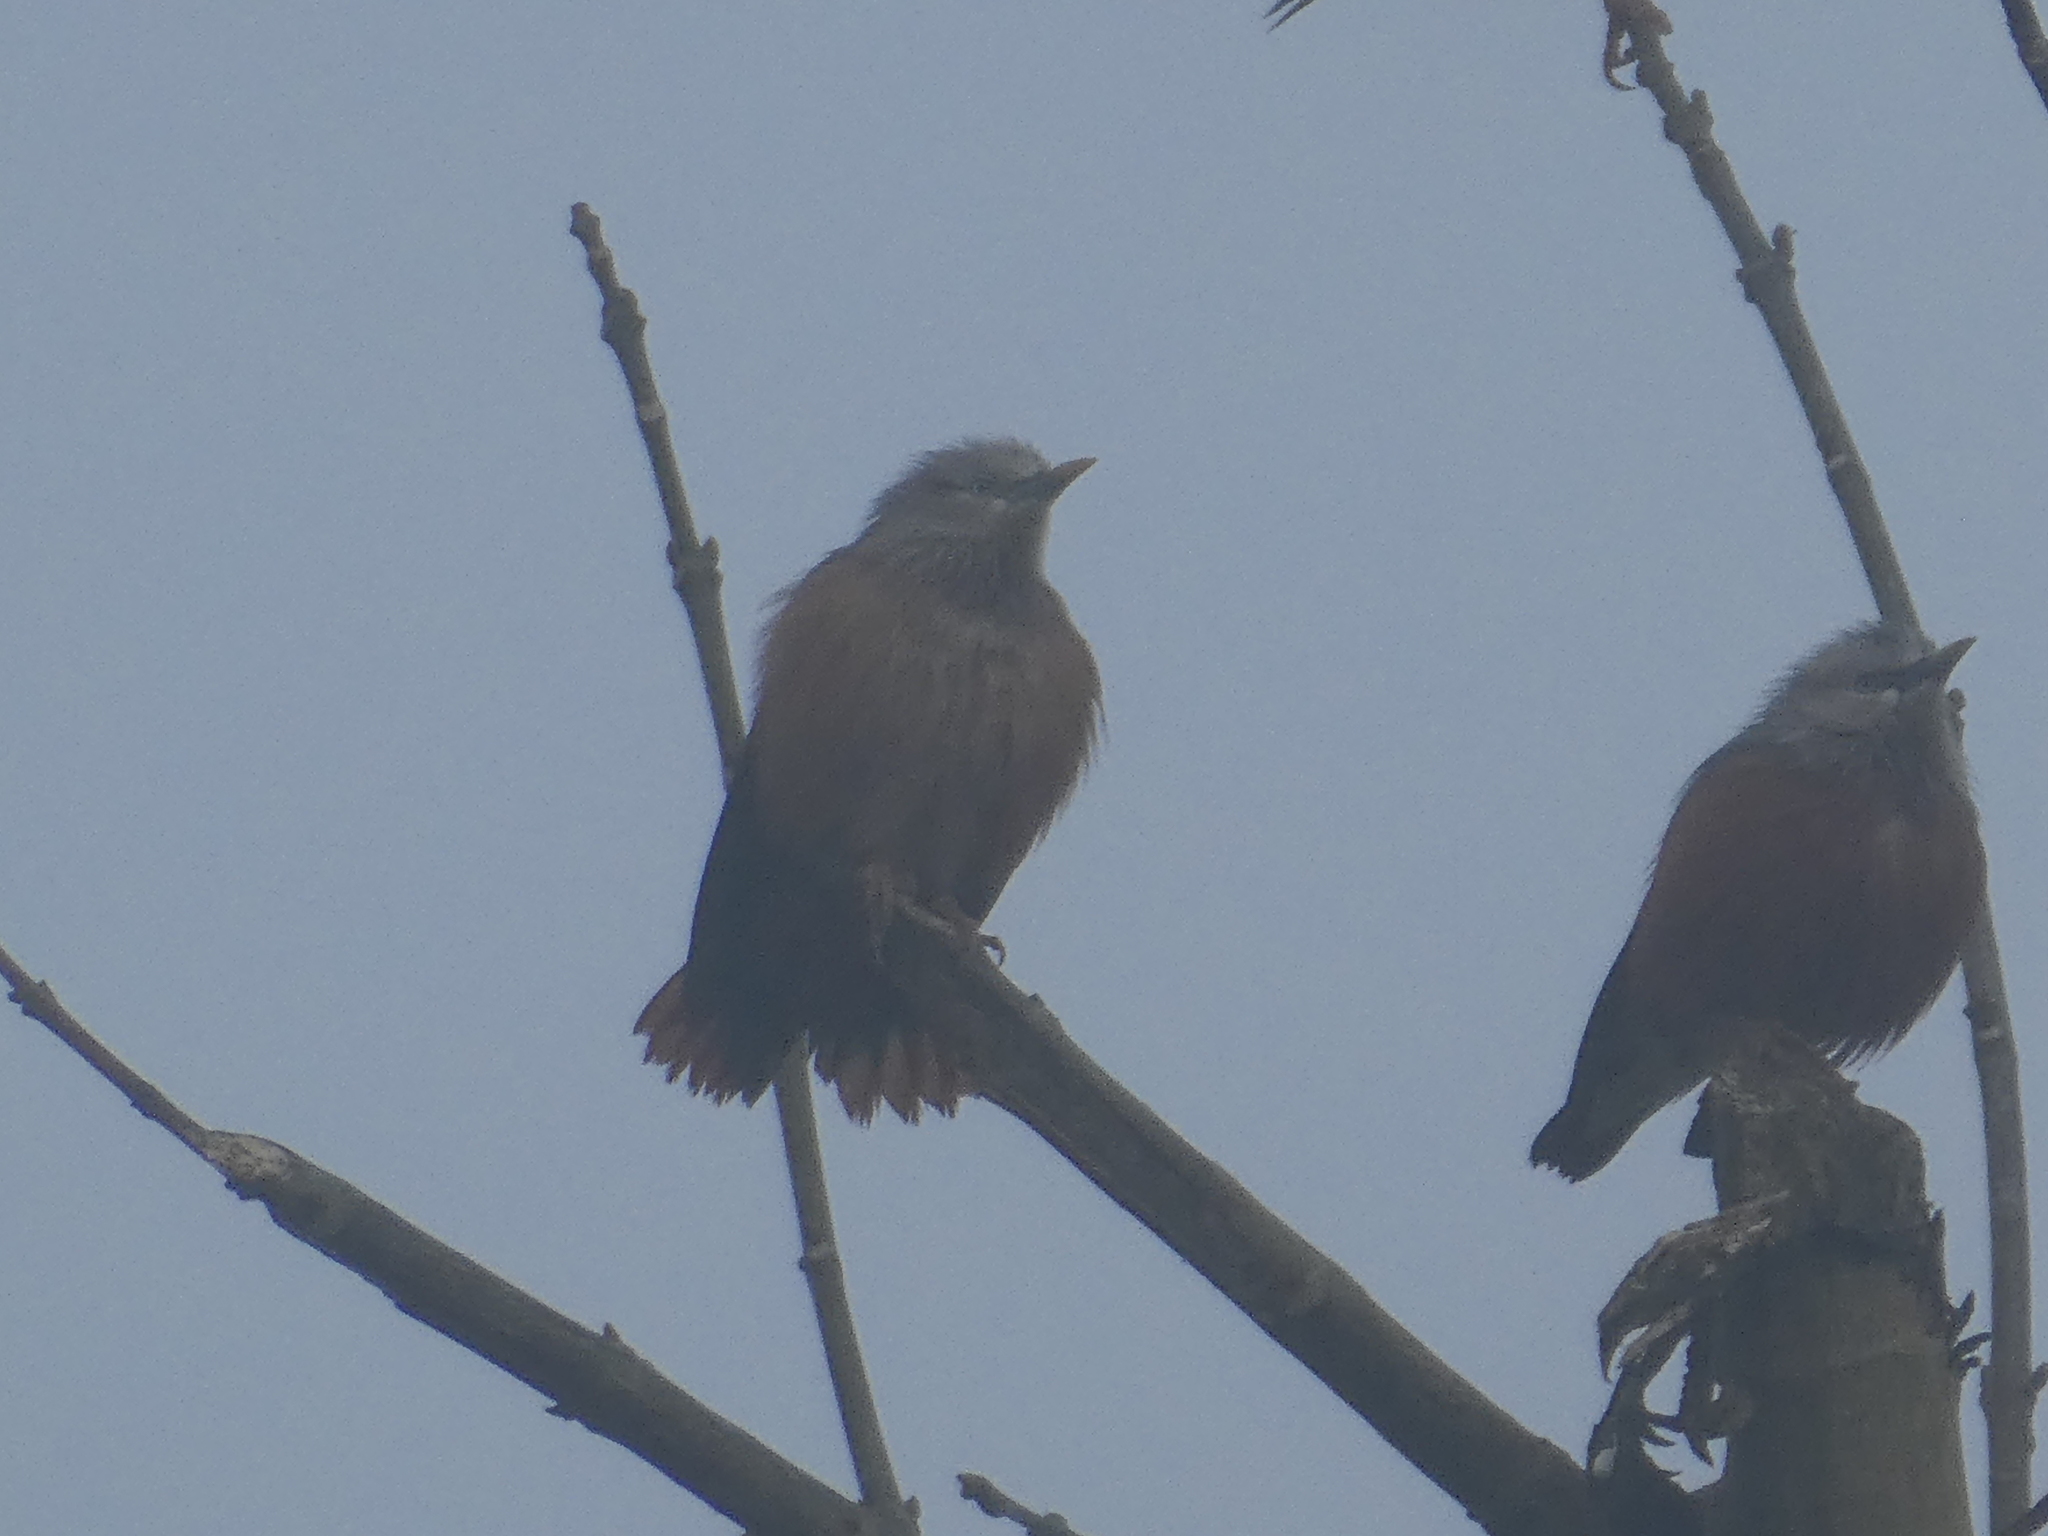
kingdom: Animalia
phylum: Chordata
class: Aves
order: Passeriformes
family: Sturnidae
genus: Sturnia
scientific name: Sturnia malabarica
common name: Chestnut-tailed starling
